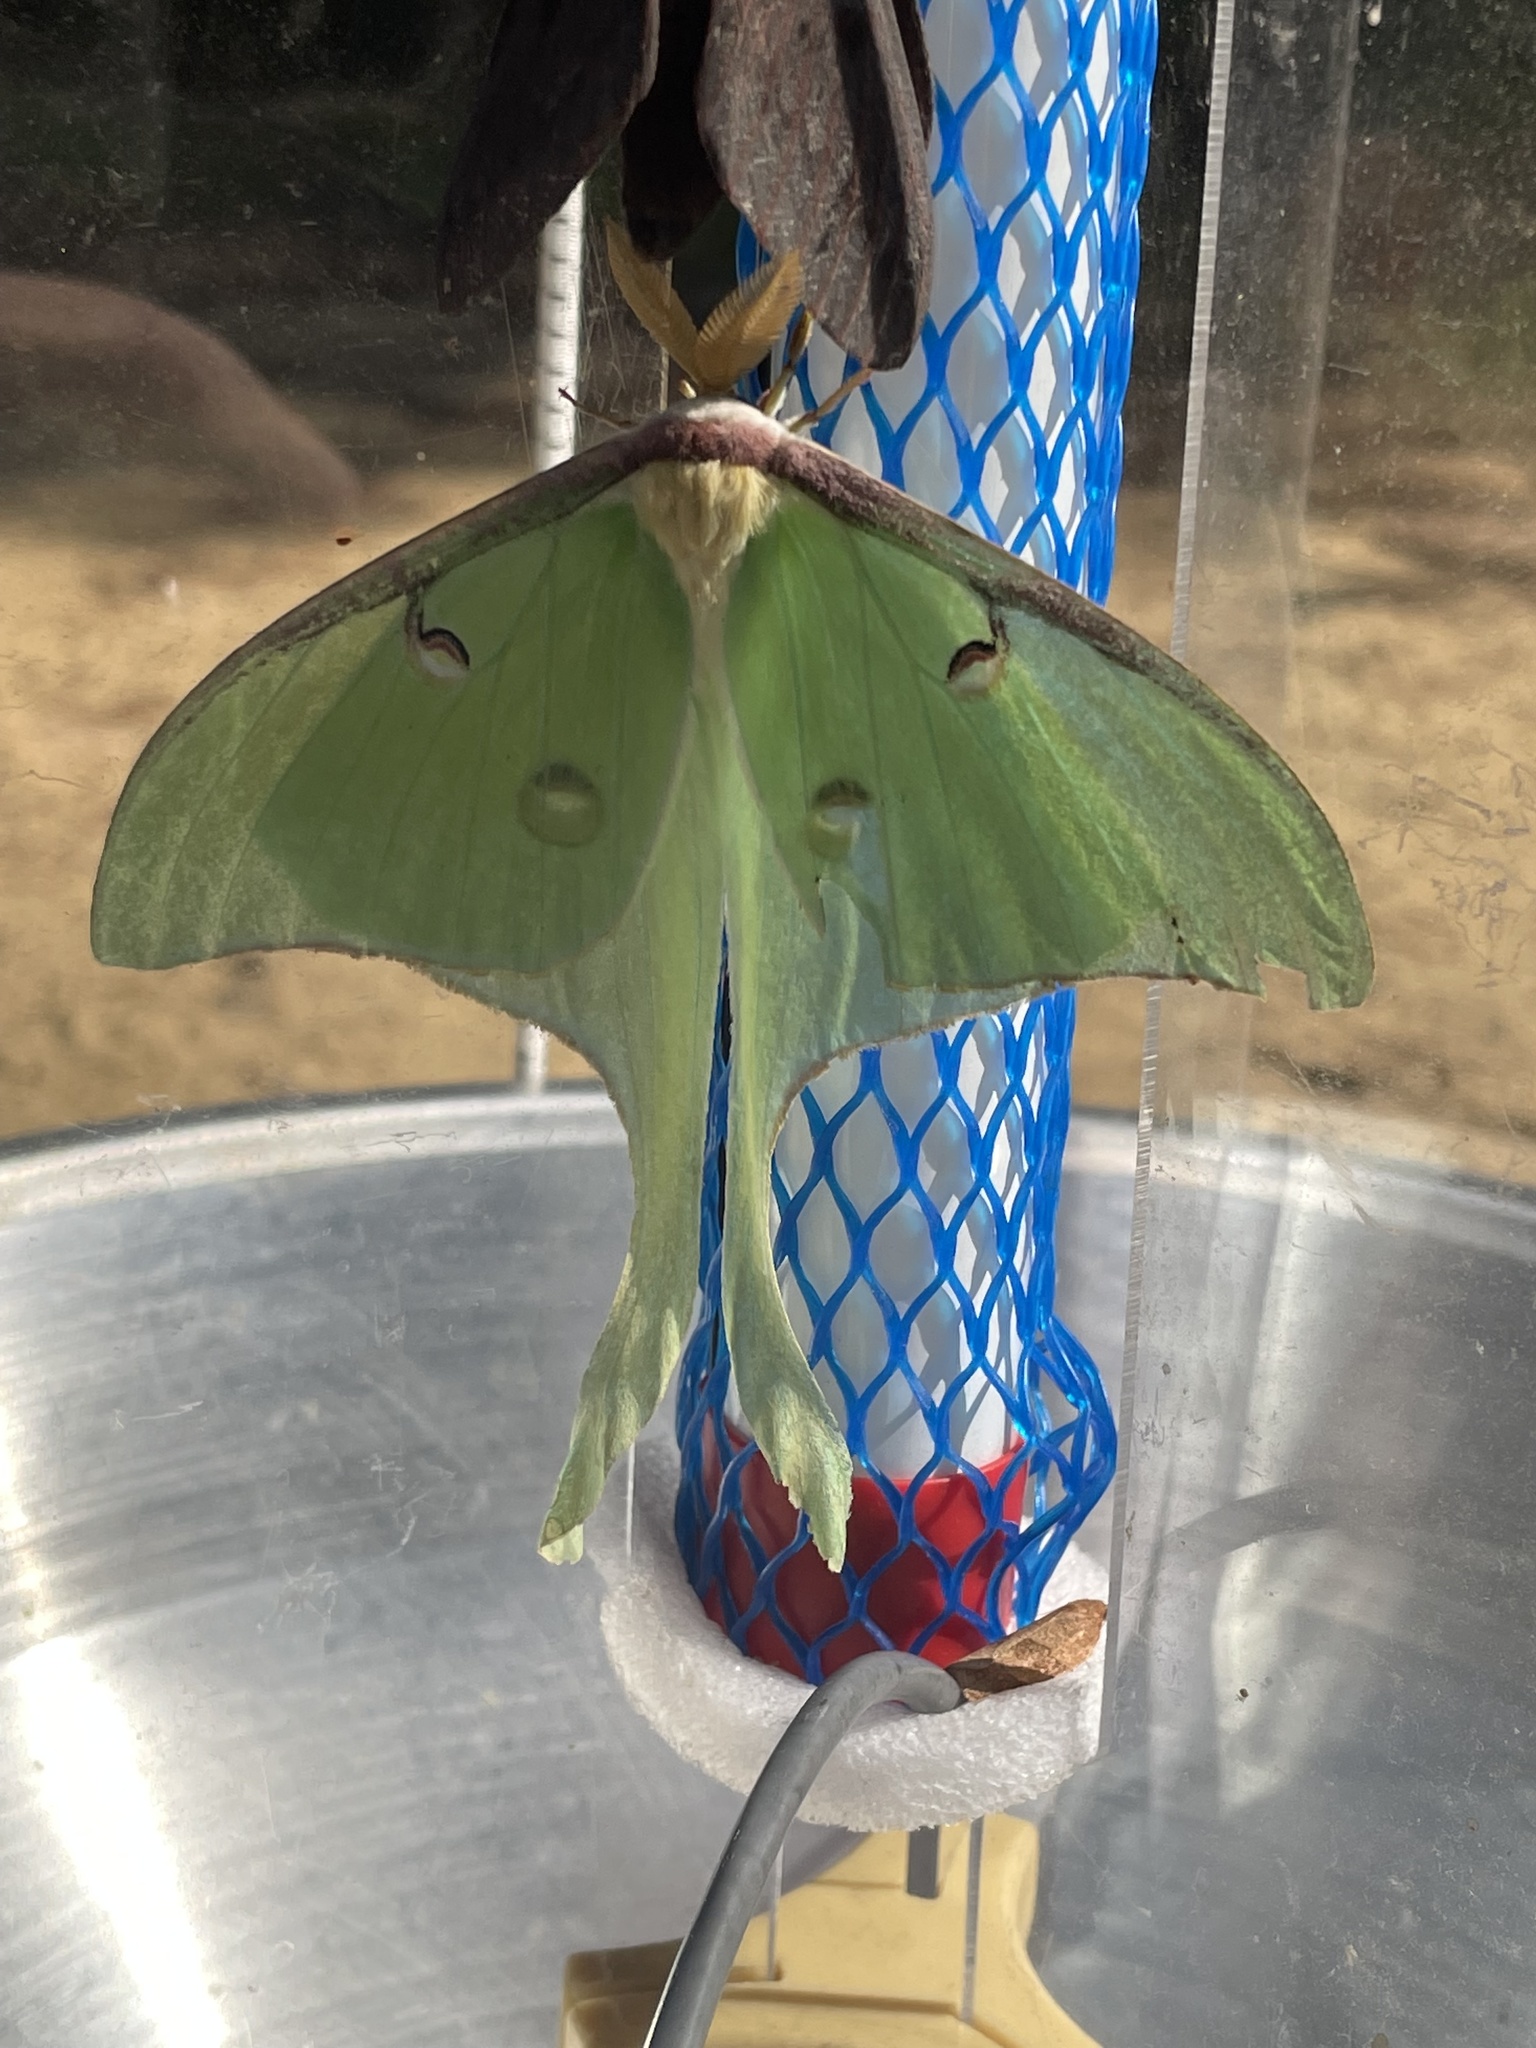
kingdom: Animalia
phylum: Arthropoda
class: Insecta
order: Lepidoptera
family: Saturniidae
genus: Actias
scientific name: Actias luna
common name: Luna moth
